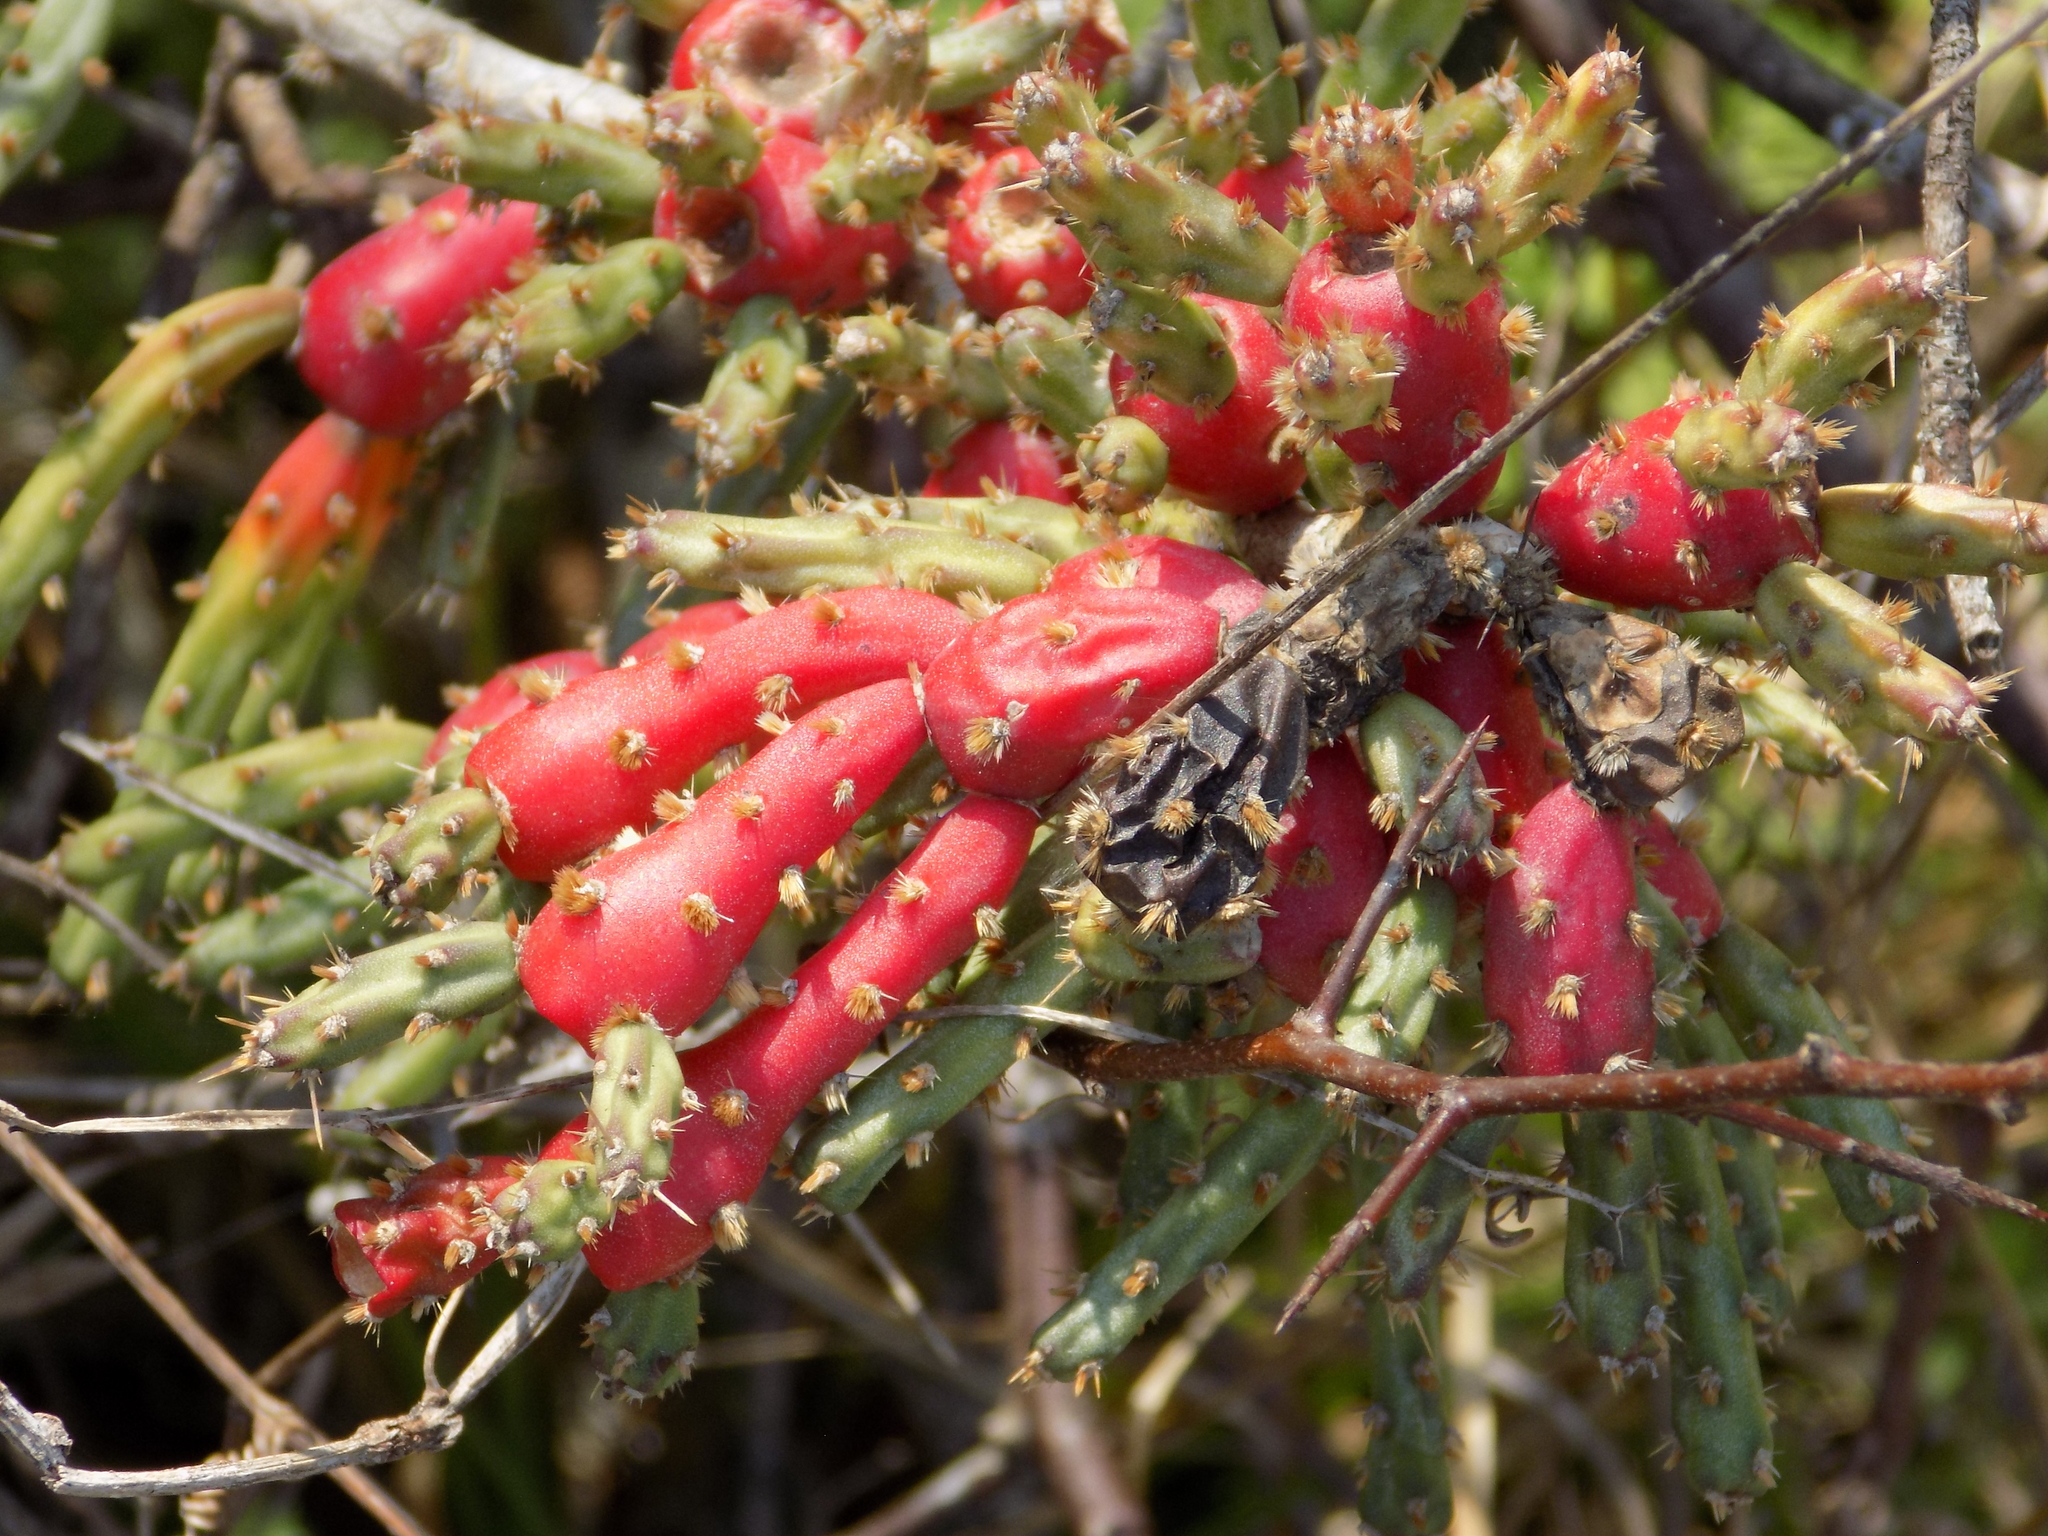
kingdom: Plantae
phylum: Tracheophyta
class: Magnoliopsida
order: Caryophyllales
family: Cactaceae
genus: Cylindropuntia
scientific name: Cylindropuntia leptocaulis
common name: Christmas cactus
